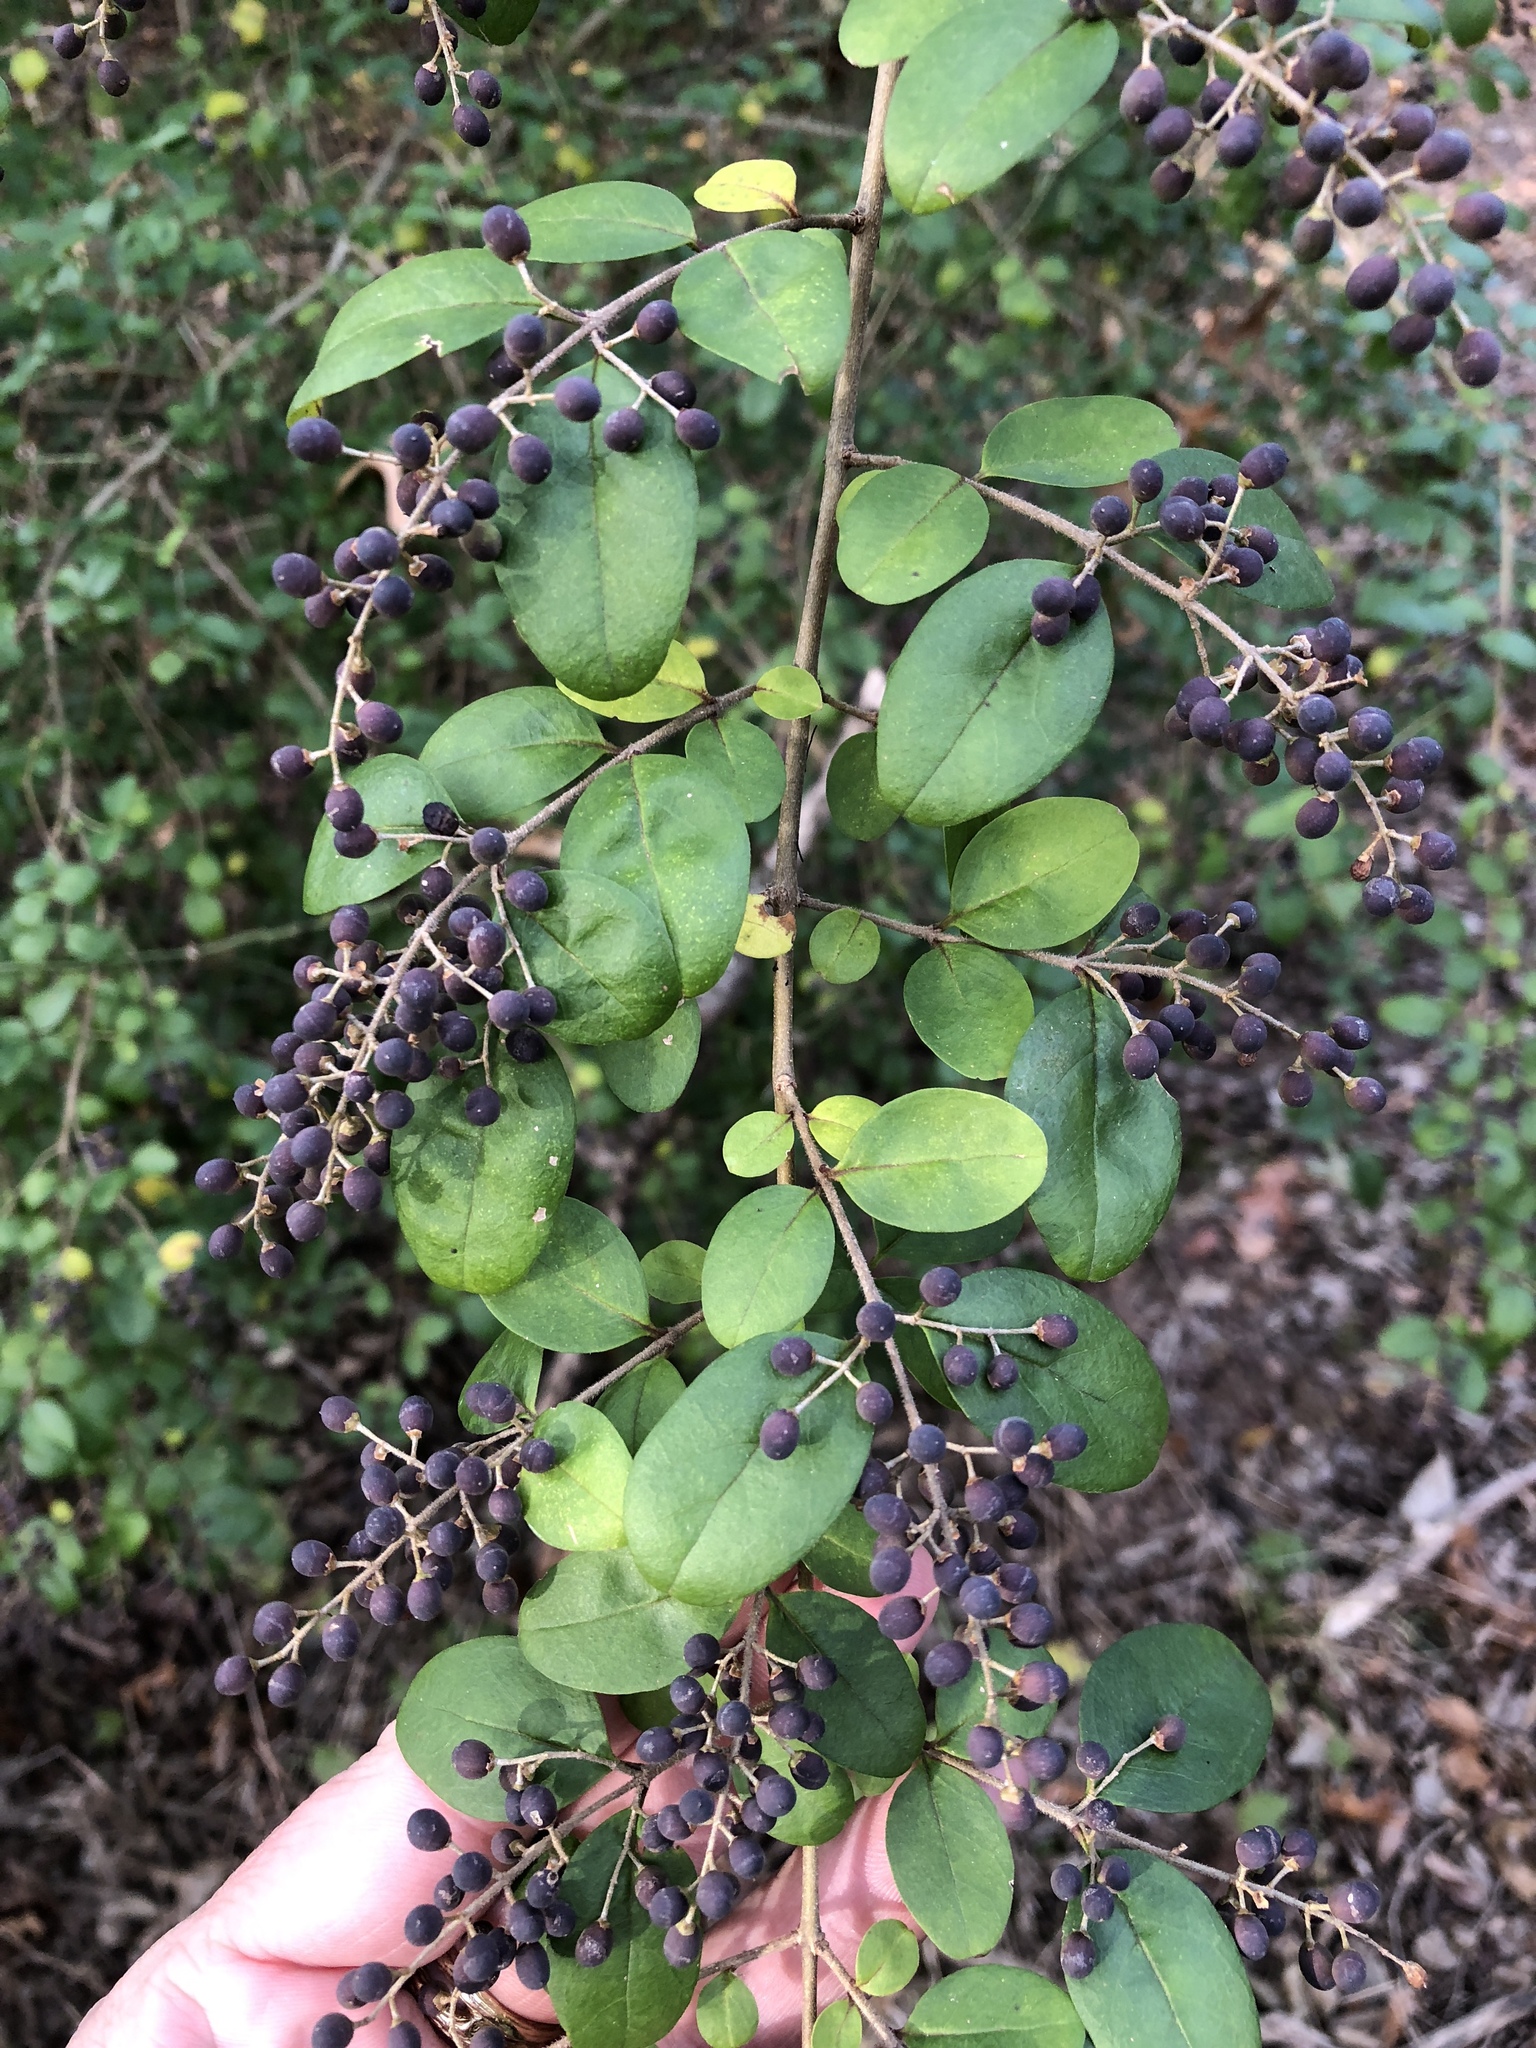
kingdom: Plantae
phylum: Tracheophyta
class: Magnoliopsida
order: Lamiales
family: Oleaceae
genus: Ligustrum
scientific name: Ligustrum sinense
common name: Chinese privet
